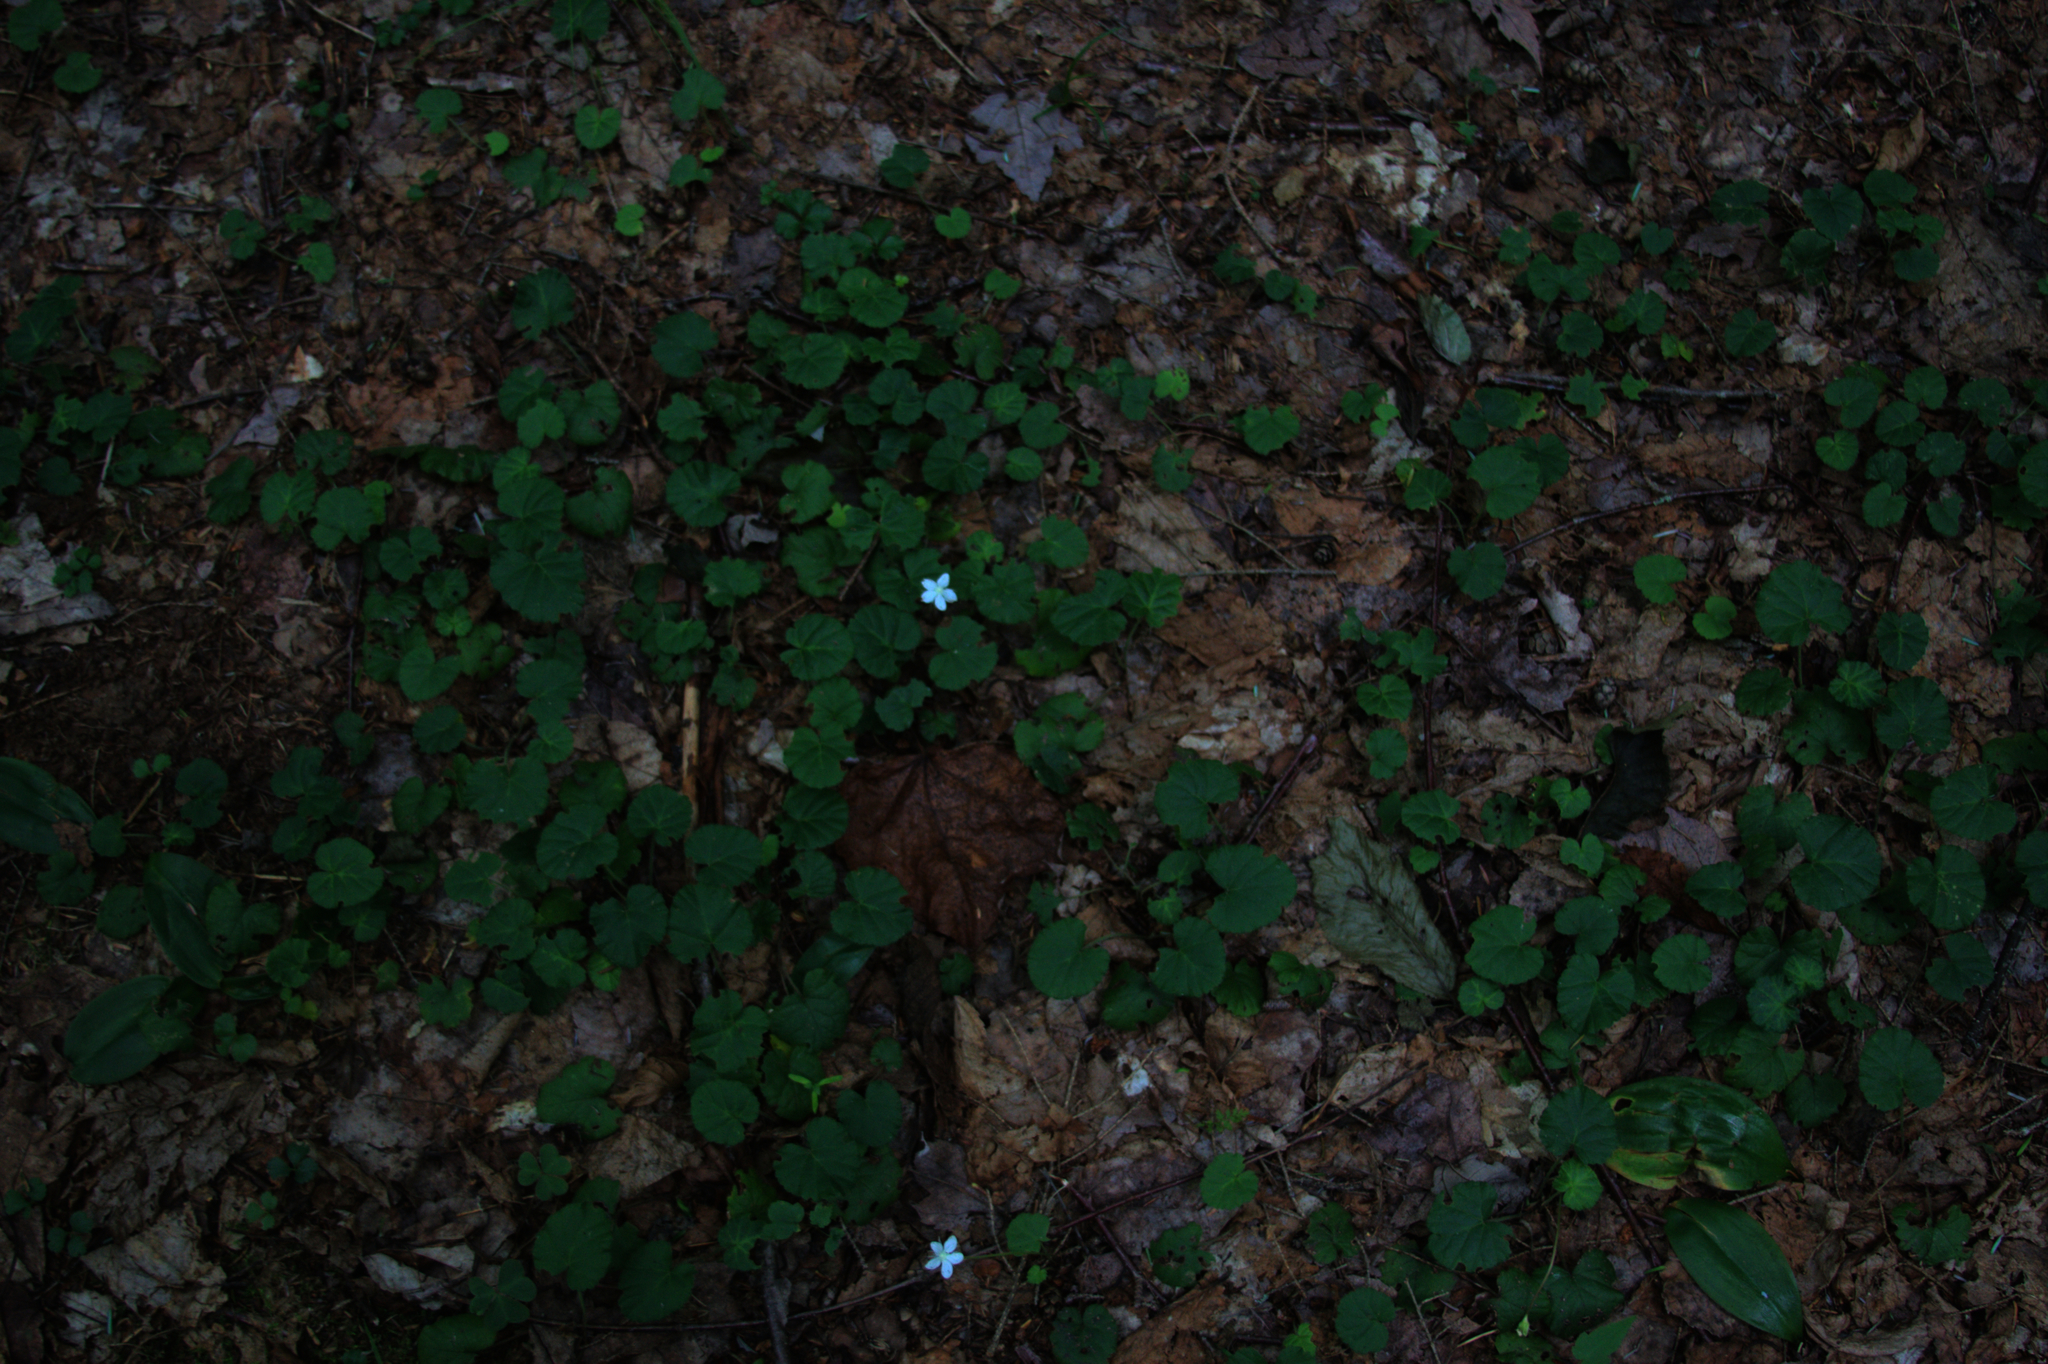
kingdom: Plantae
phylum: Tracheophyta
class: Magnoliopsida
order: Rosales
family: Rosaceae
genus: Dalibarda
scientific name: Dalibarda repens
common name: Dewdrop
